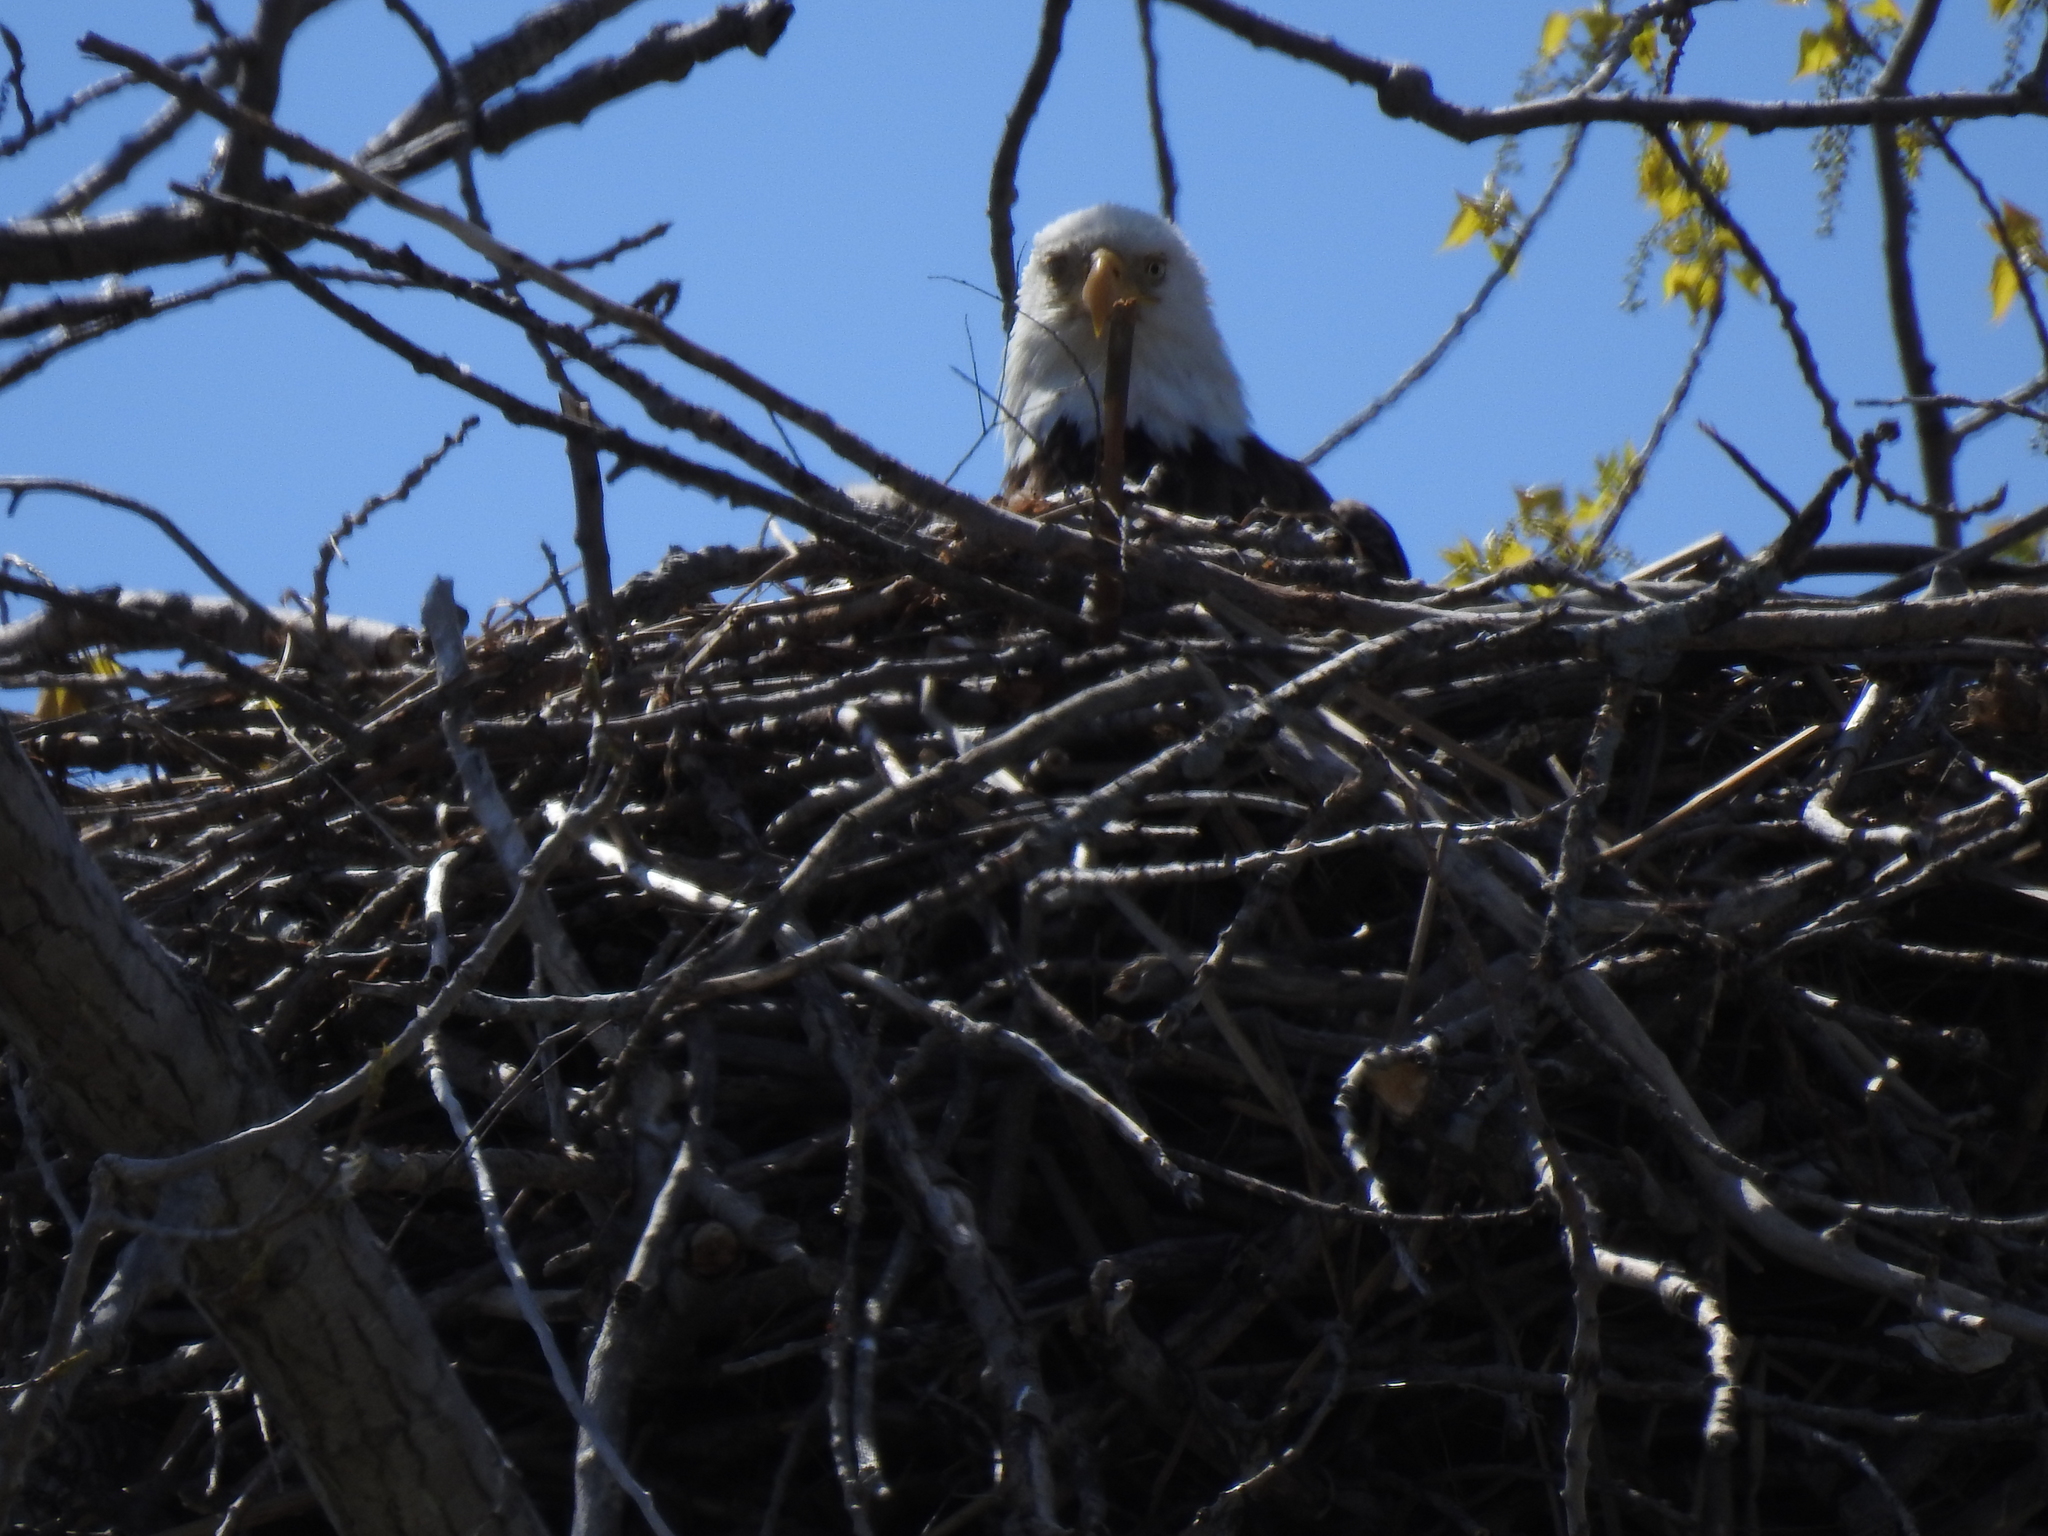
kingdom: Animalia
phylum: Chordata
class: Aves
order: Accipitriformes
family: Accipitridae
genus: Haliaeetus
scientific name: Haliaeetus leucocephalus
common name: Bald eagle
